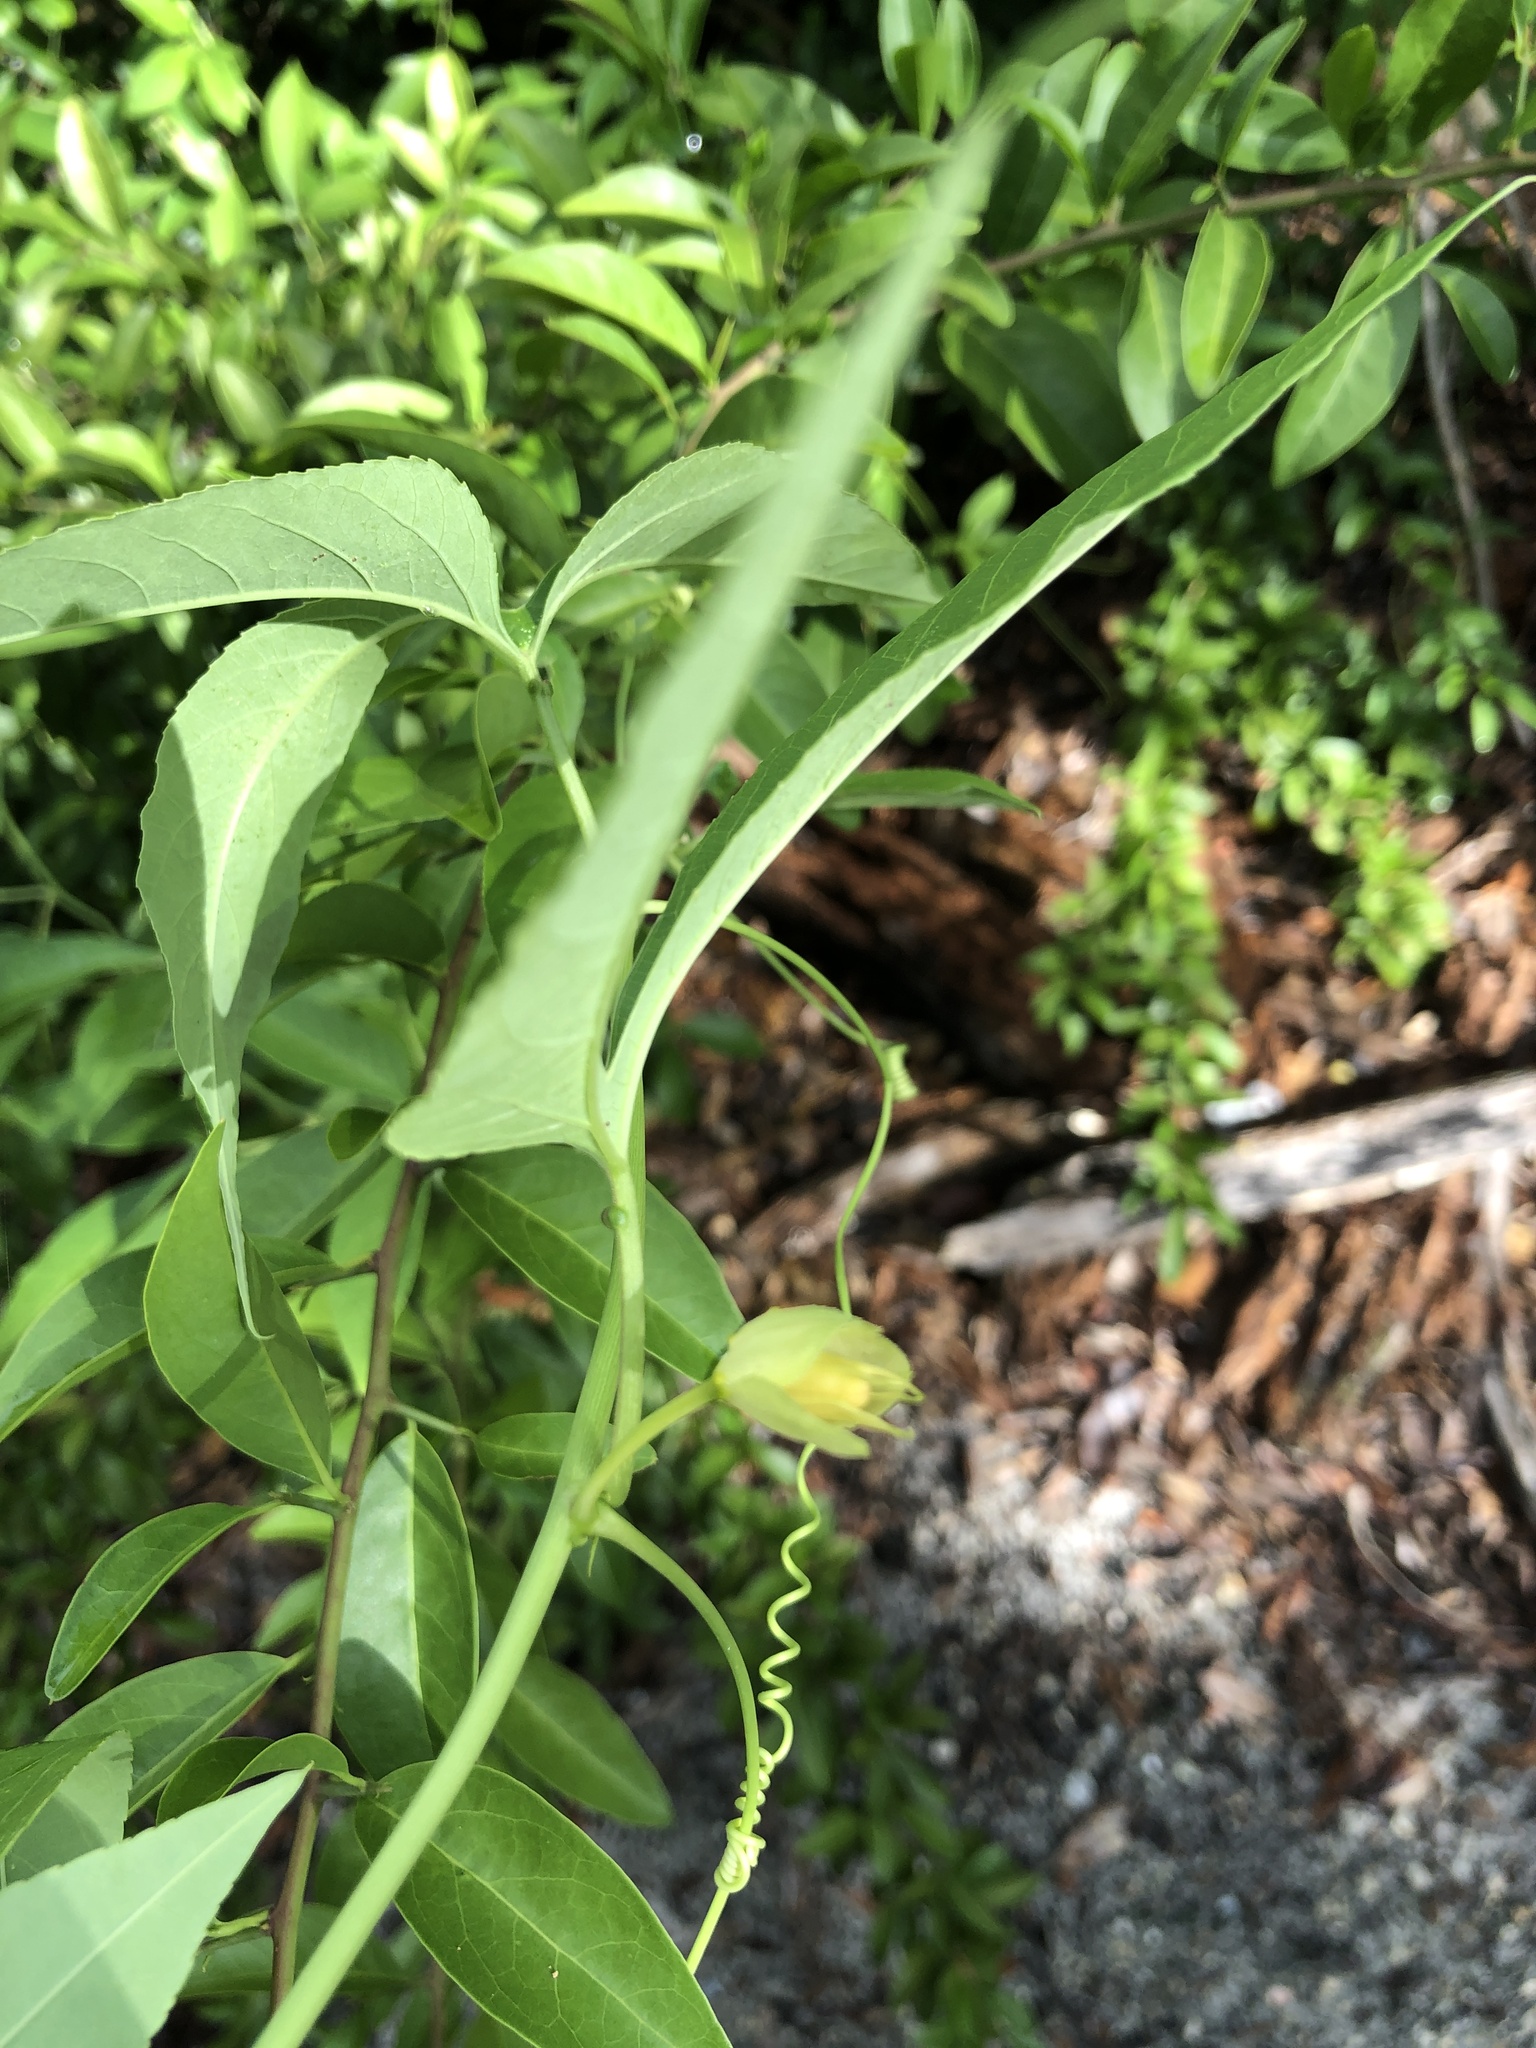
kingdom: Plantae
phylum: Tracheophyta
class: Magnoliopsida
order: Malpighiales
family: Passifloraceae
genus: Passiflora
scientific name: Passiflora
